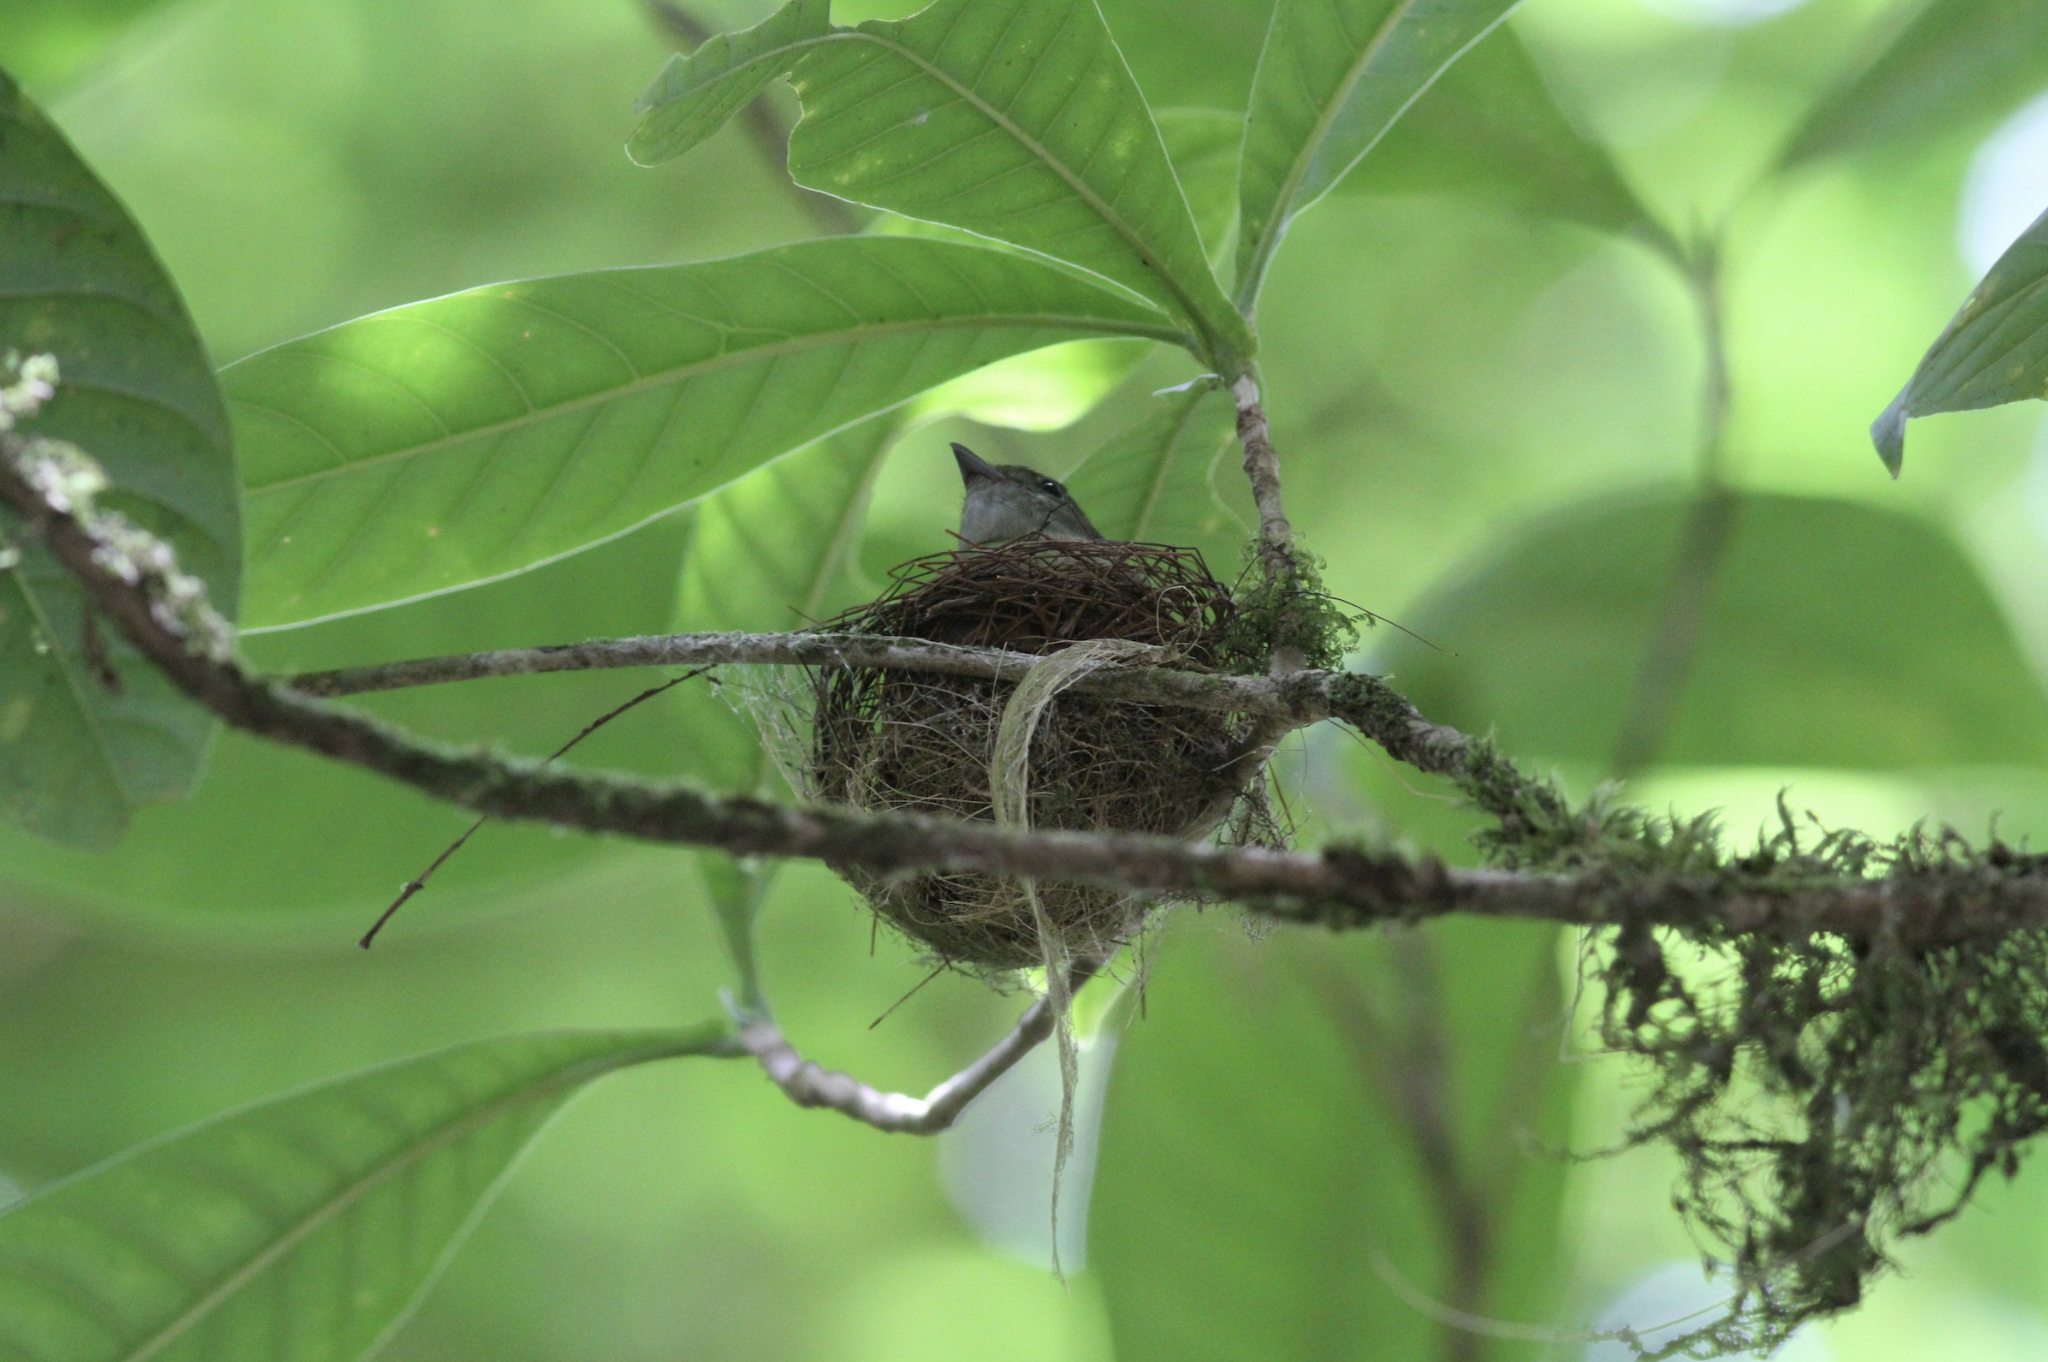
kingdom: Animalia
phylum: Chordata
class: Aves
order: Passeriformes
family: Pipridae
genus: Corapipo
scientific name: Corapipo altera
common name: White-ruffed manakin
